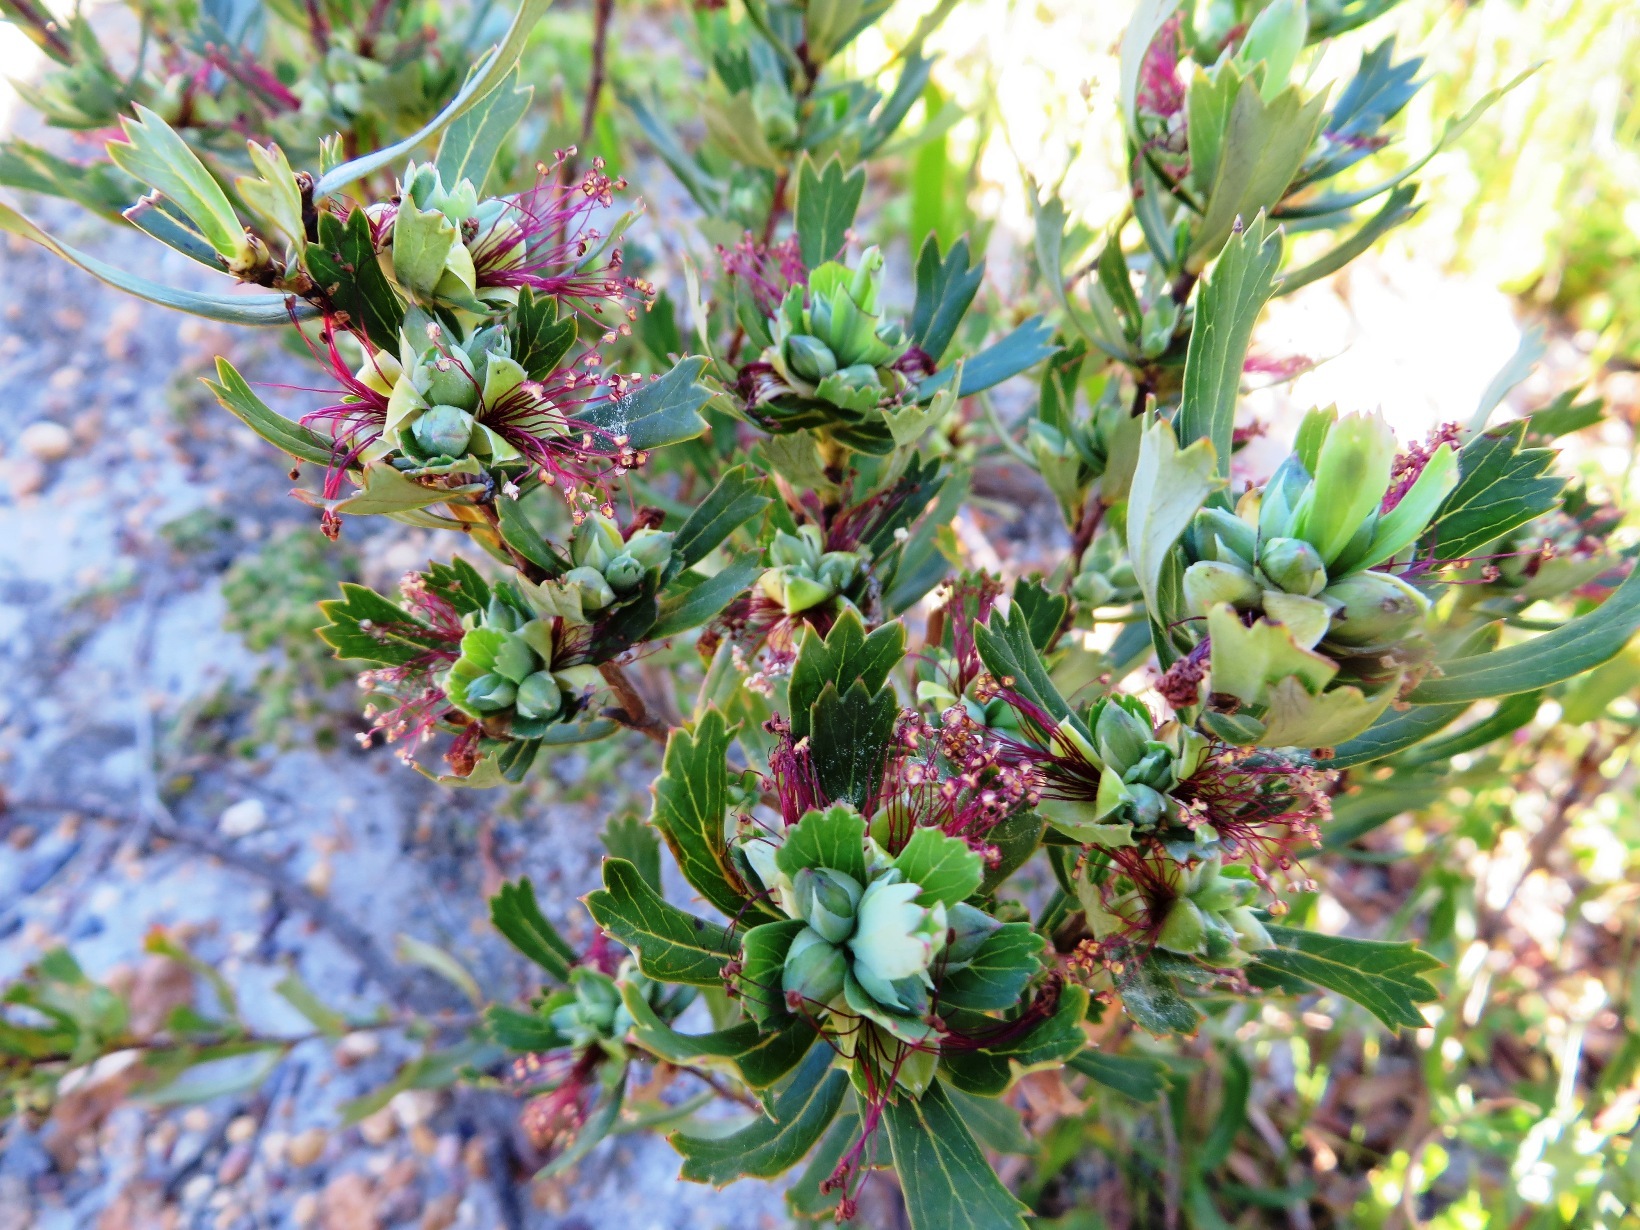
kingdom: Plantae
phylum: Tracheophyta
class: Magnoliopsida
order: Rosales
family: Rosaceae
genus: Cliffortia
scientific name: Cliffortia cuneata
